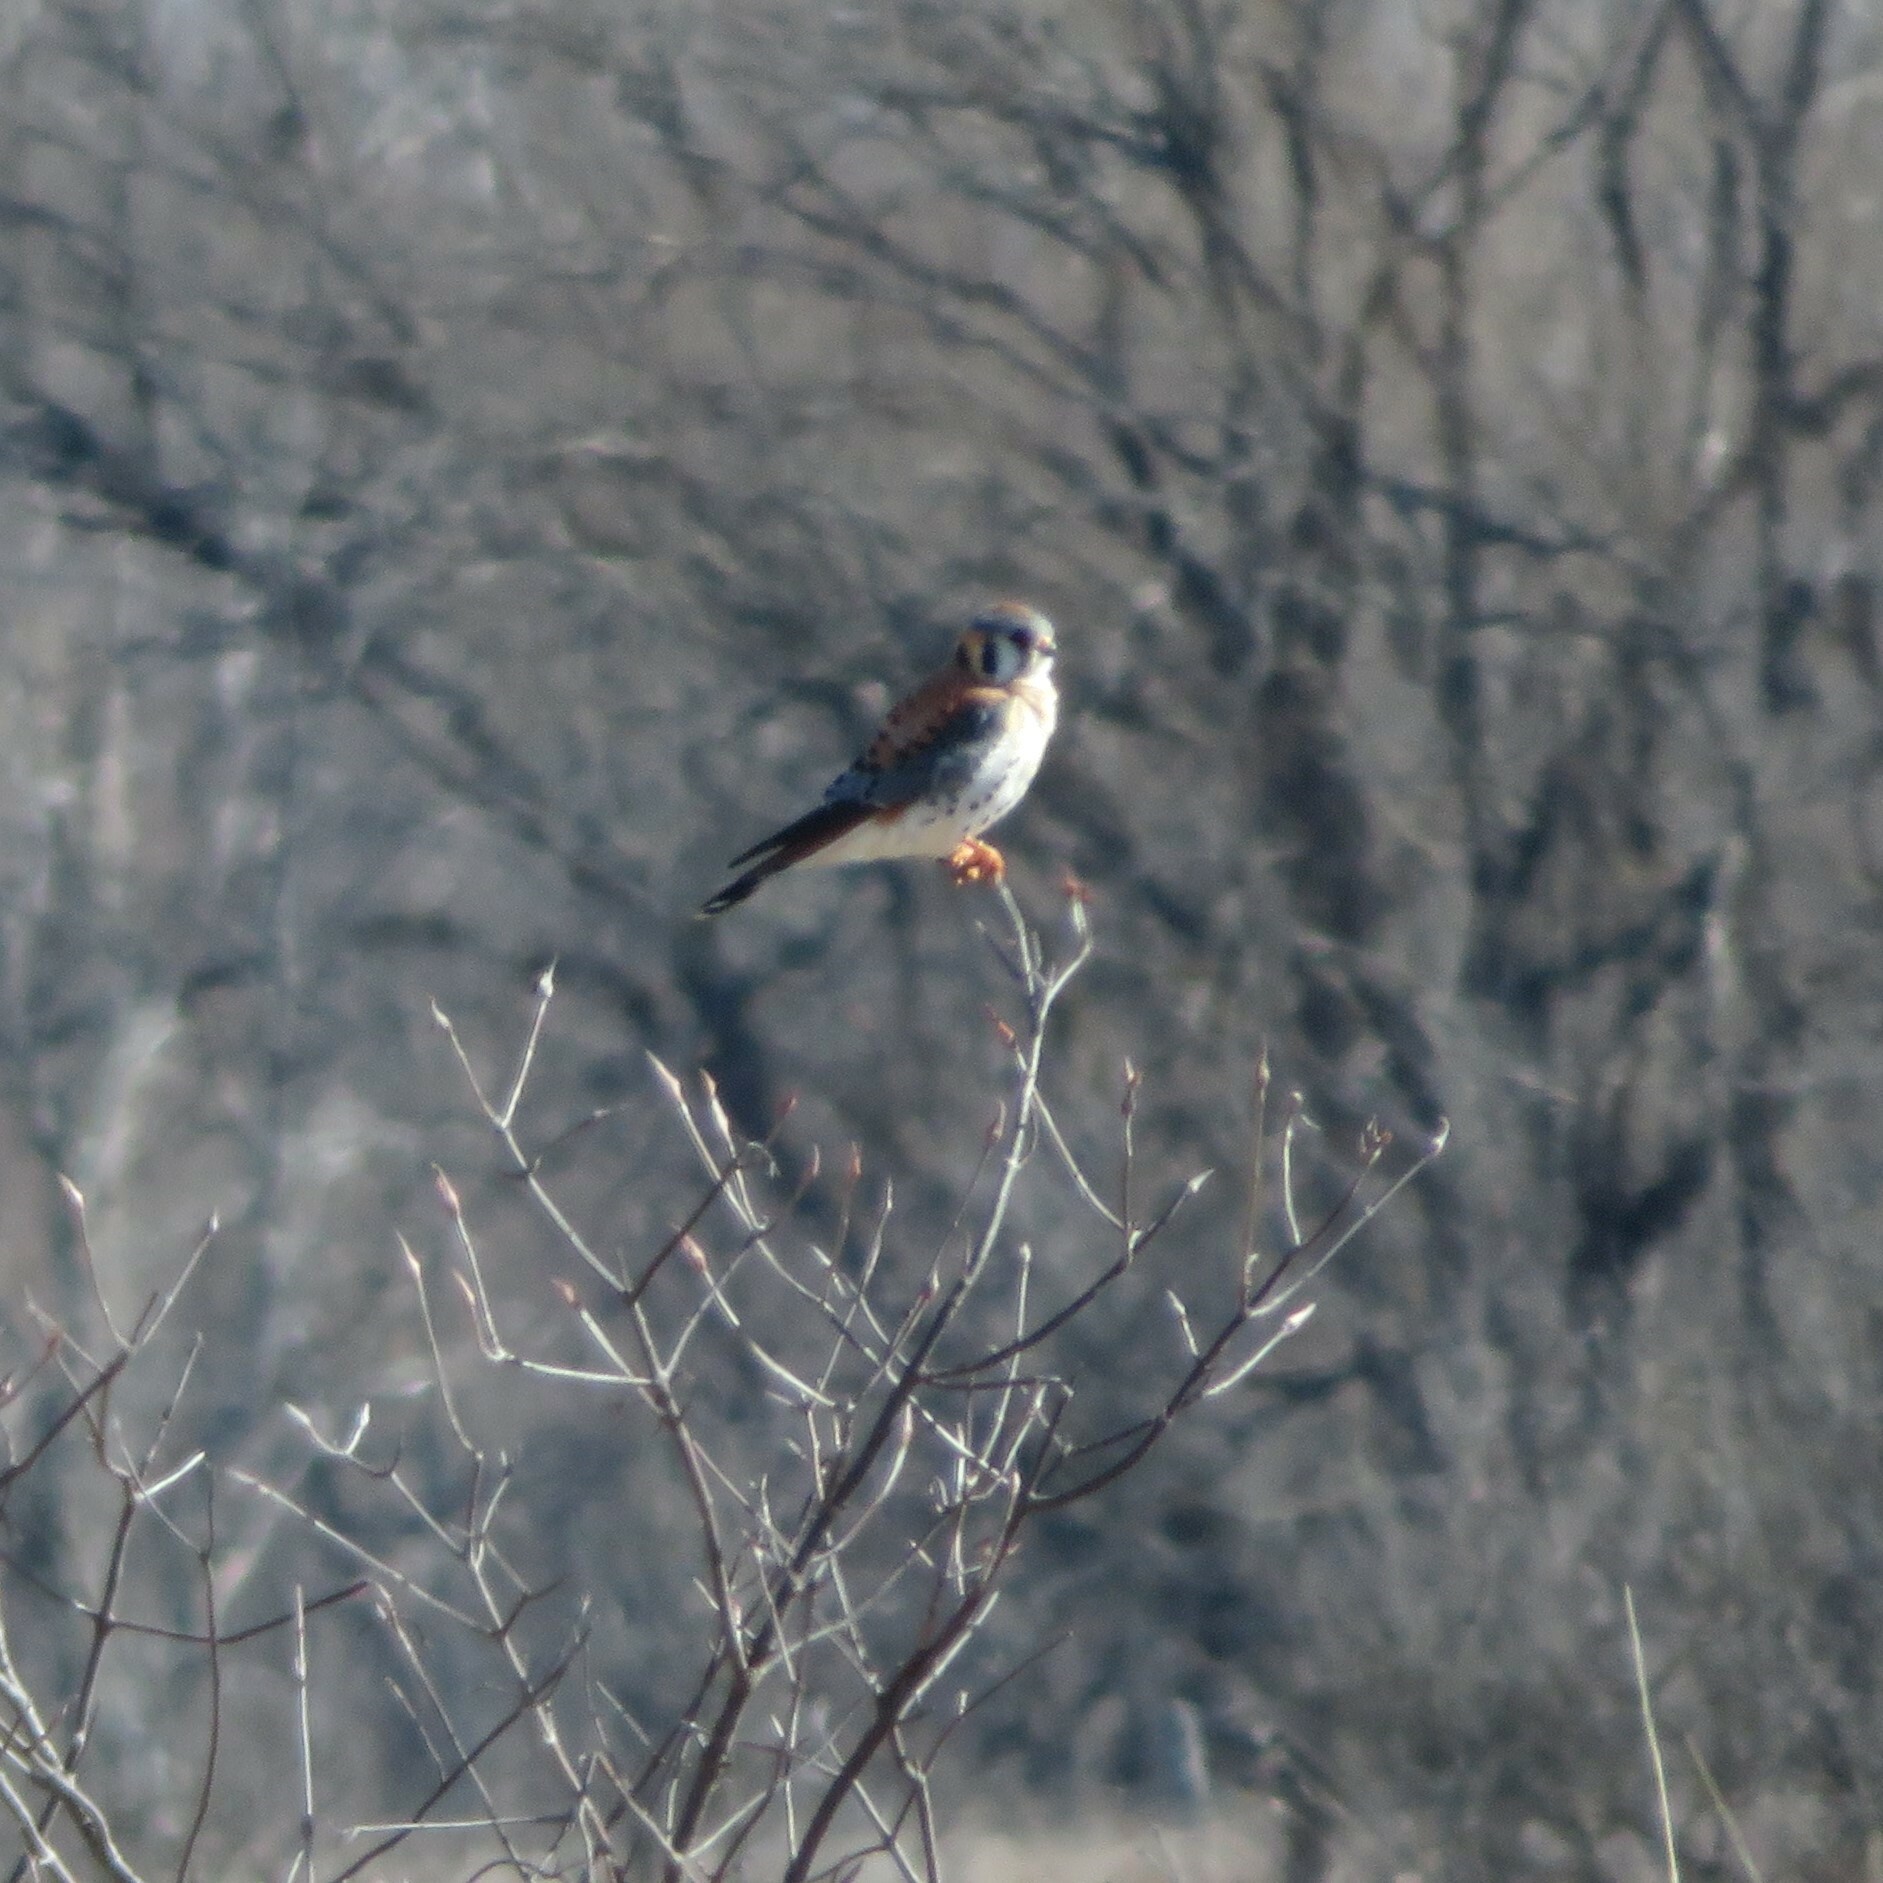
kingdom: Animalia
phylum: Chordata
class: Aves
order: Falconiformes
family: Falconidae
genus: Falco
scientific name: Falco sparverius
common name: American kestrel
